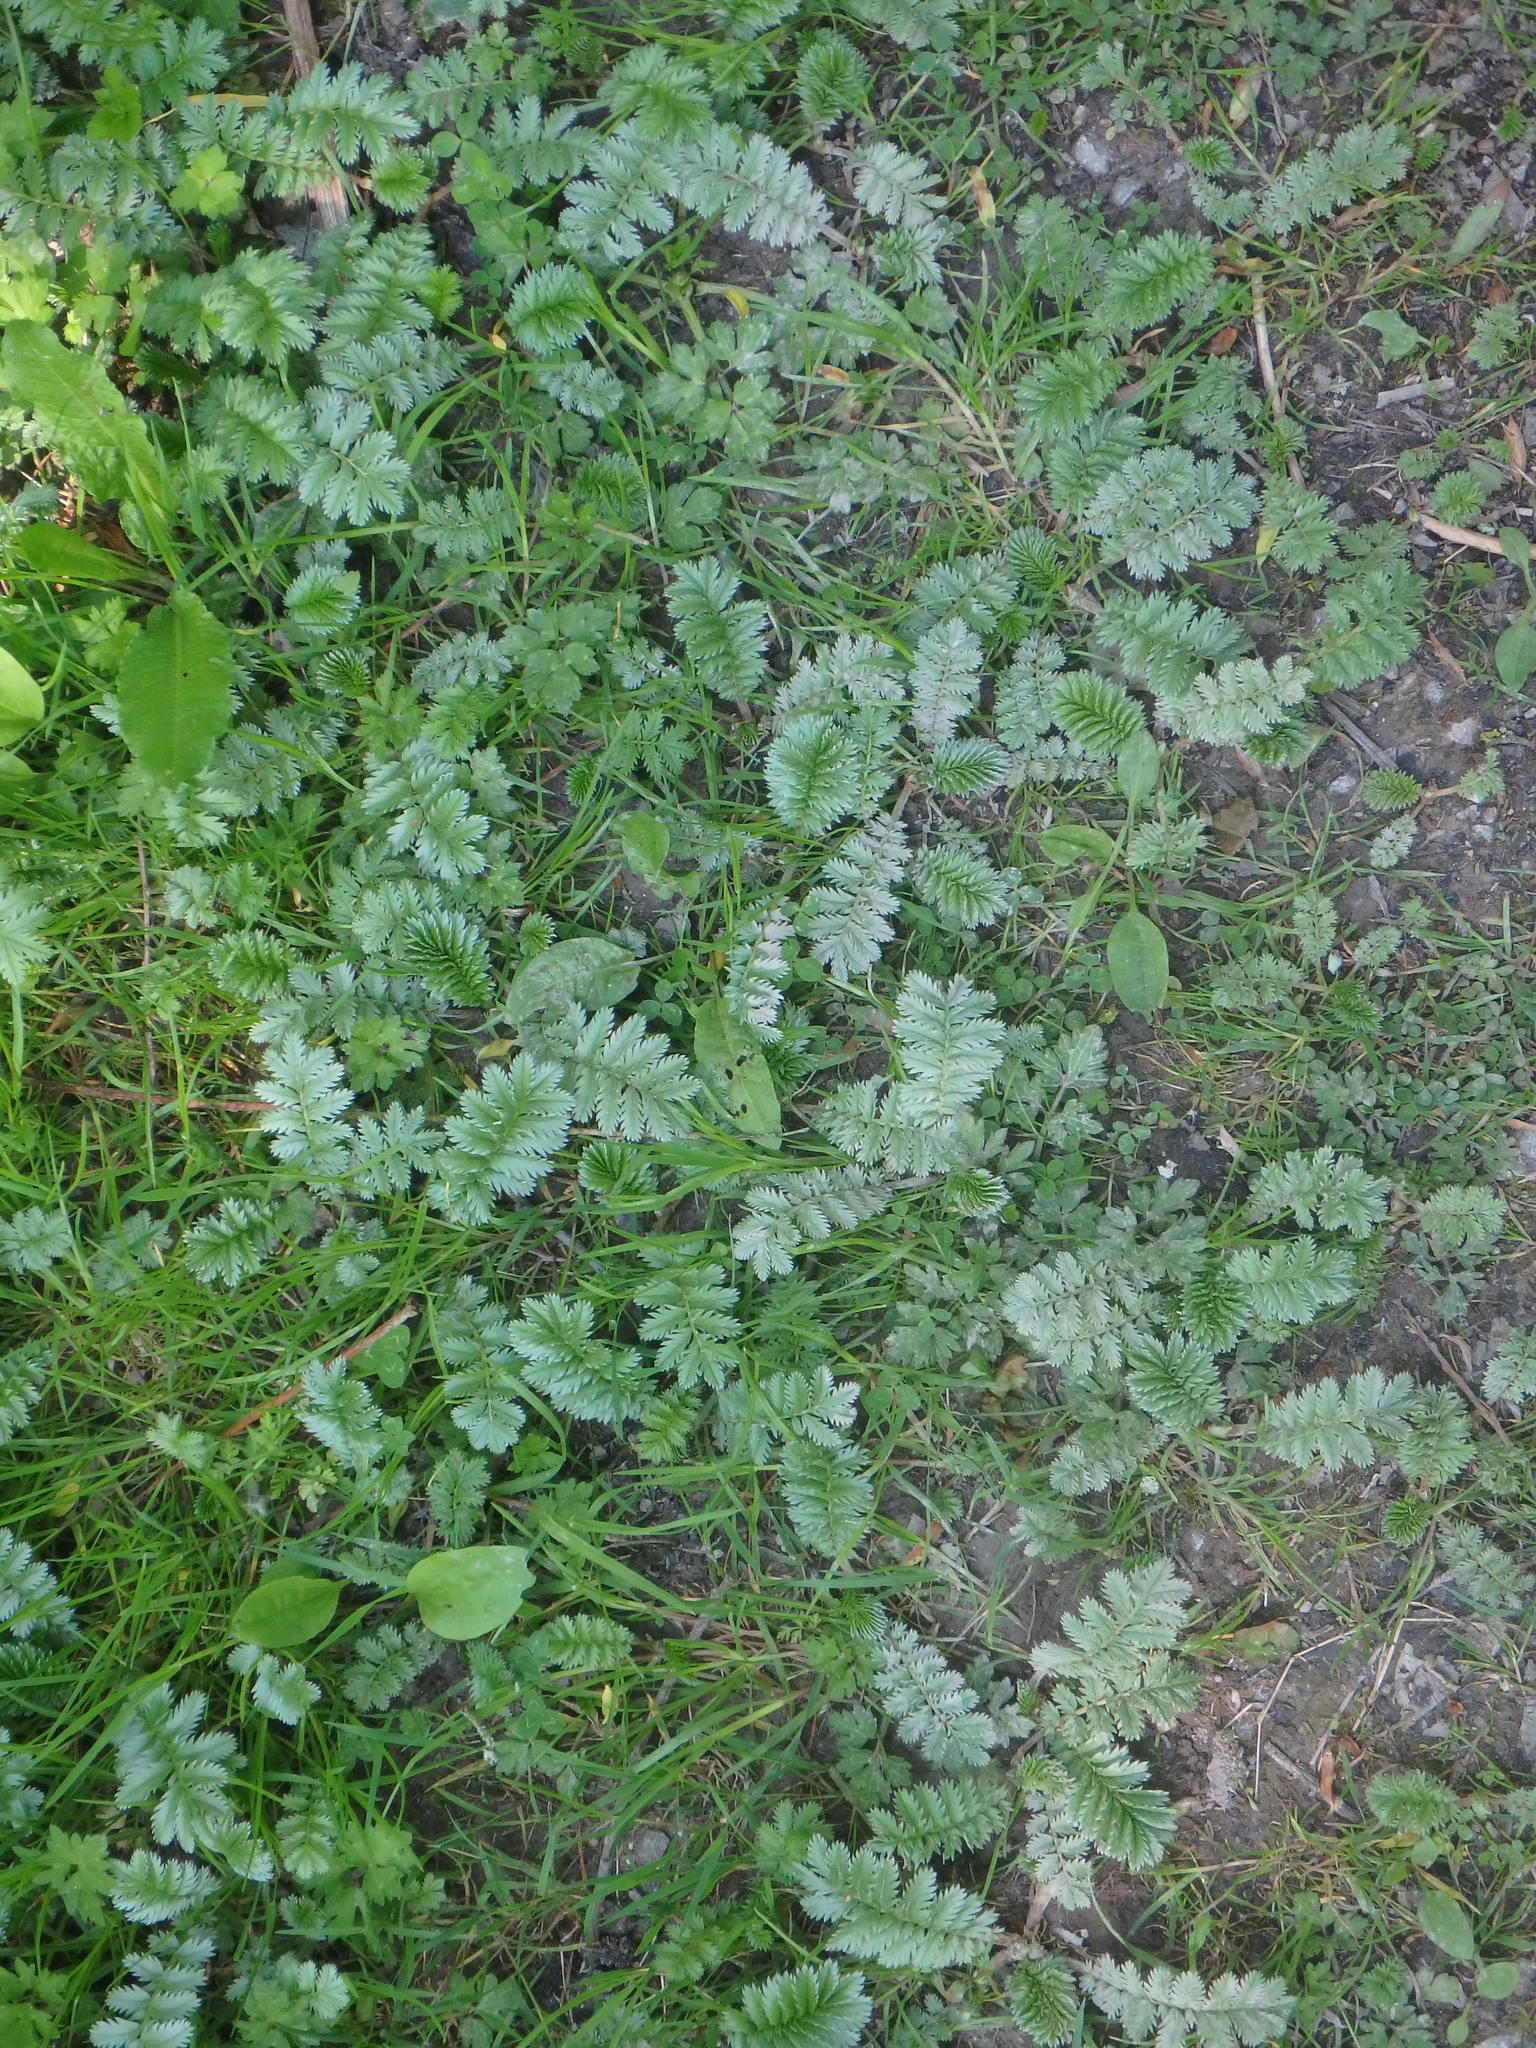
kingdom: Plantae
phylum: Tracheophyta
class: Magnoliopsida
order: Rosales
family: Rosaceae
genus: Argentina
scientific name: Argentina anserina
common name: Common silverweed
